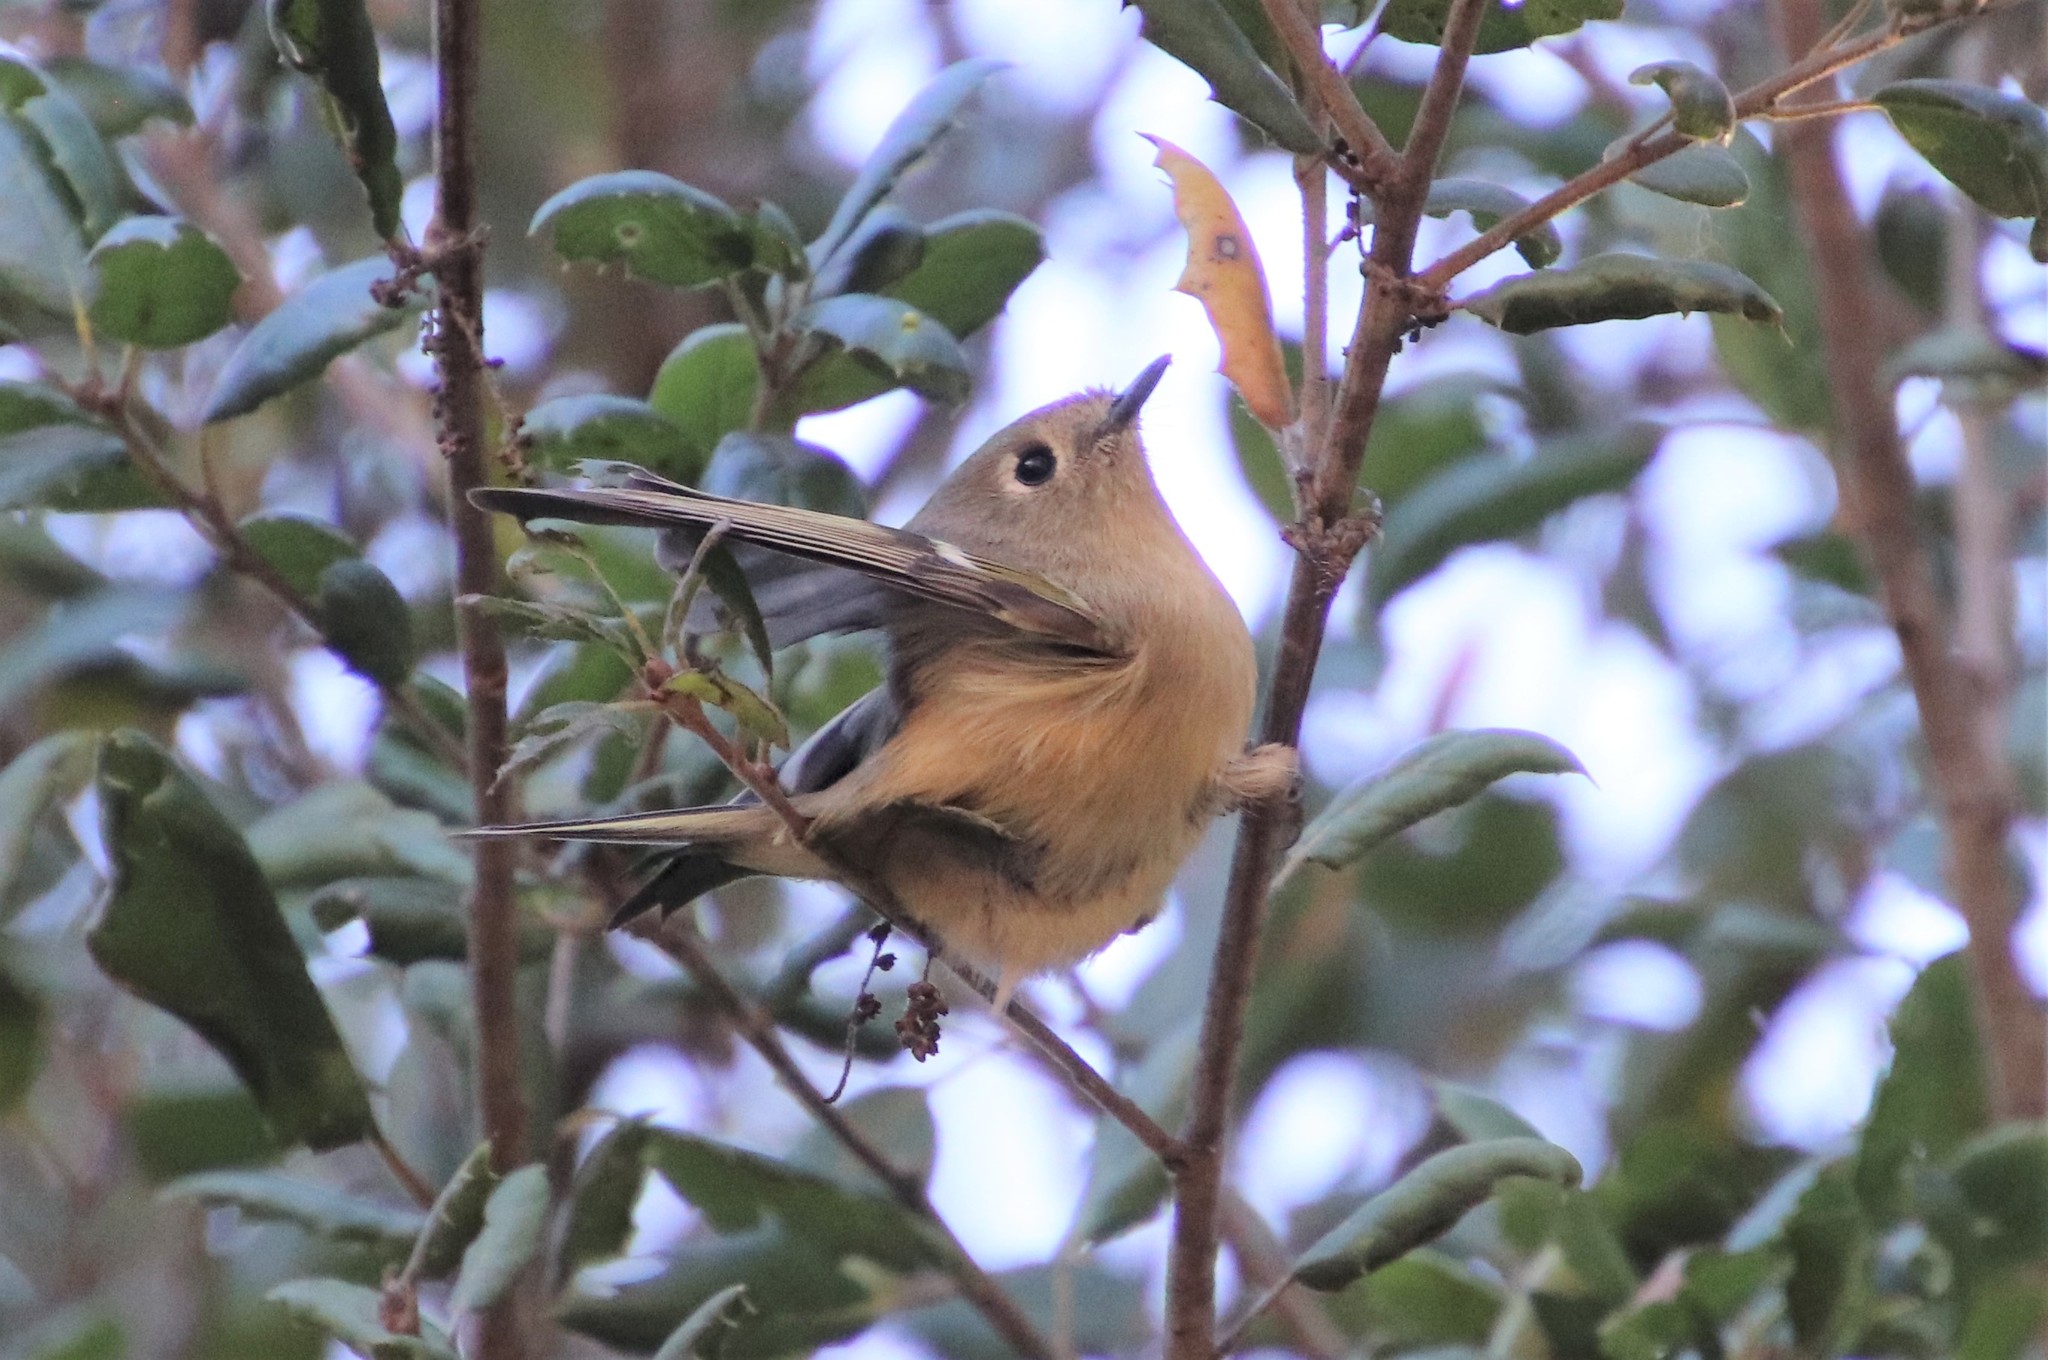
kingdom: Animalia
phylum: Chordata
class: Aves
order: Passeriformes
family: Regulidae
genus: Regulus
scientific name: Regulus calendula
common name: Ruby-crowned kinglet
